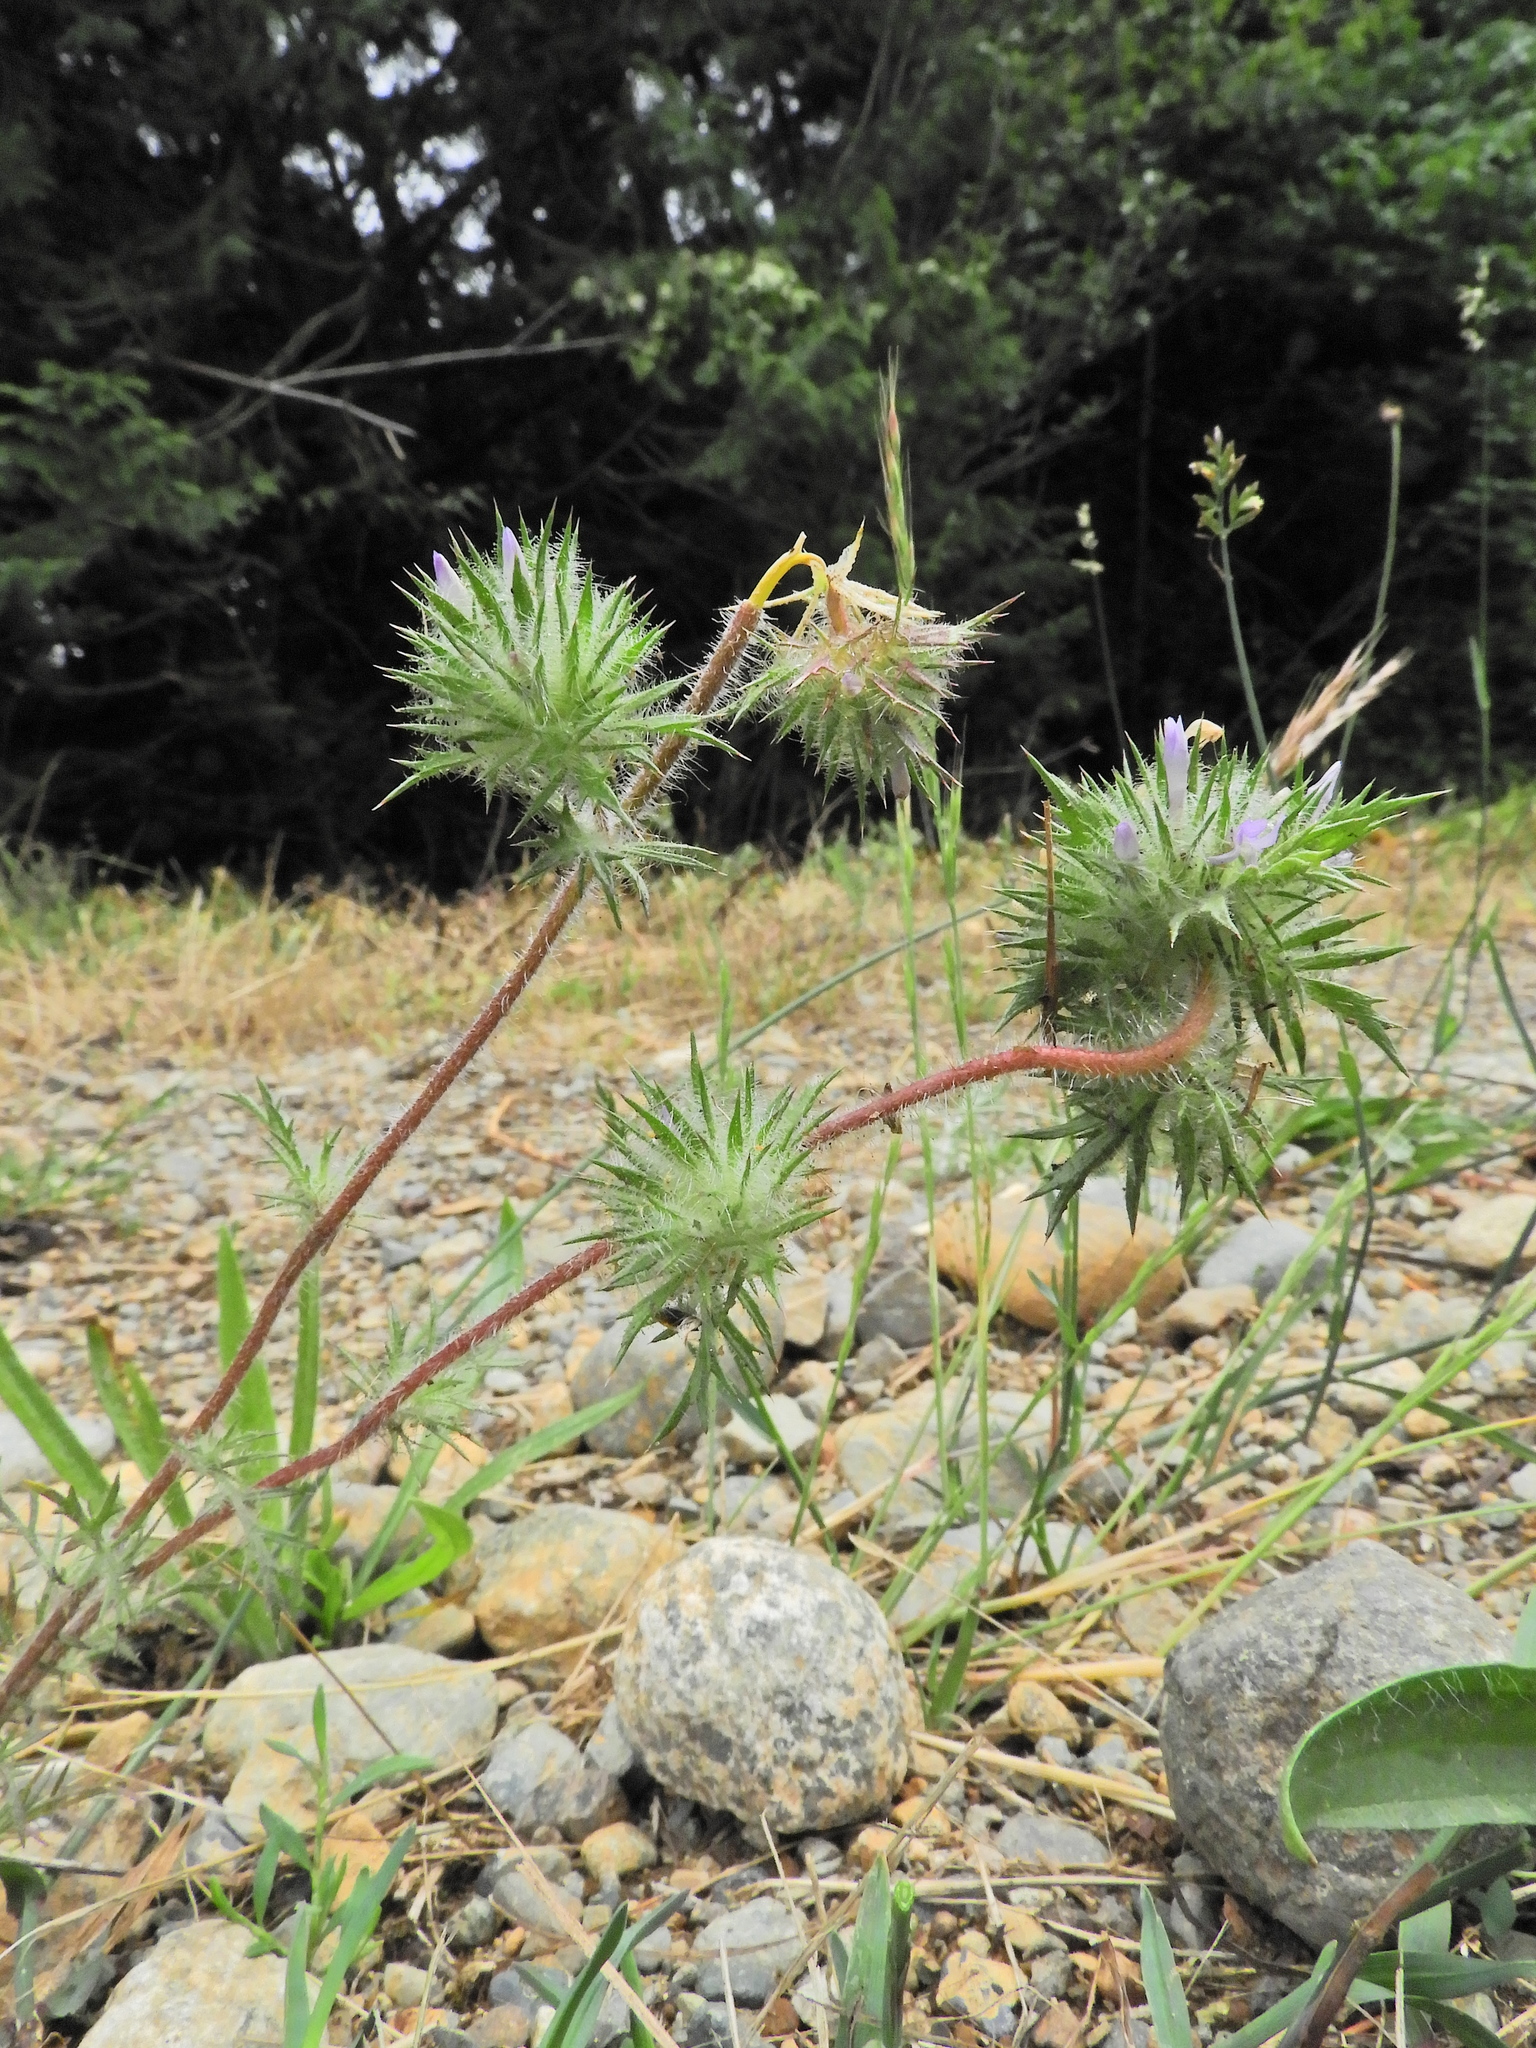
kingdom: Plantae
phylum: Tracheophyta
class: Magnoliopsida
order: Ericales
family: Polemoniaceae
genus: Navarretia
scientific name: Navarretia squarrosa
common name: Skunkweed
